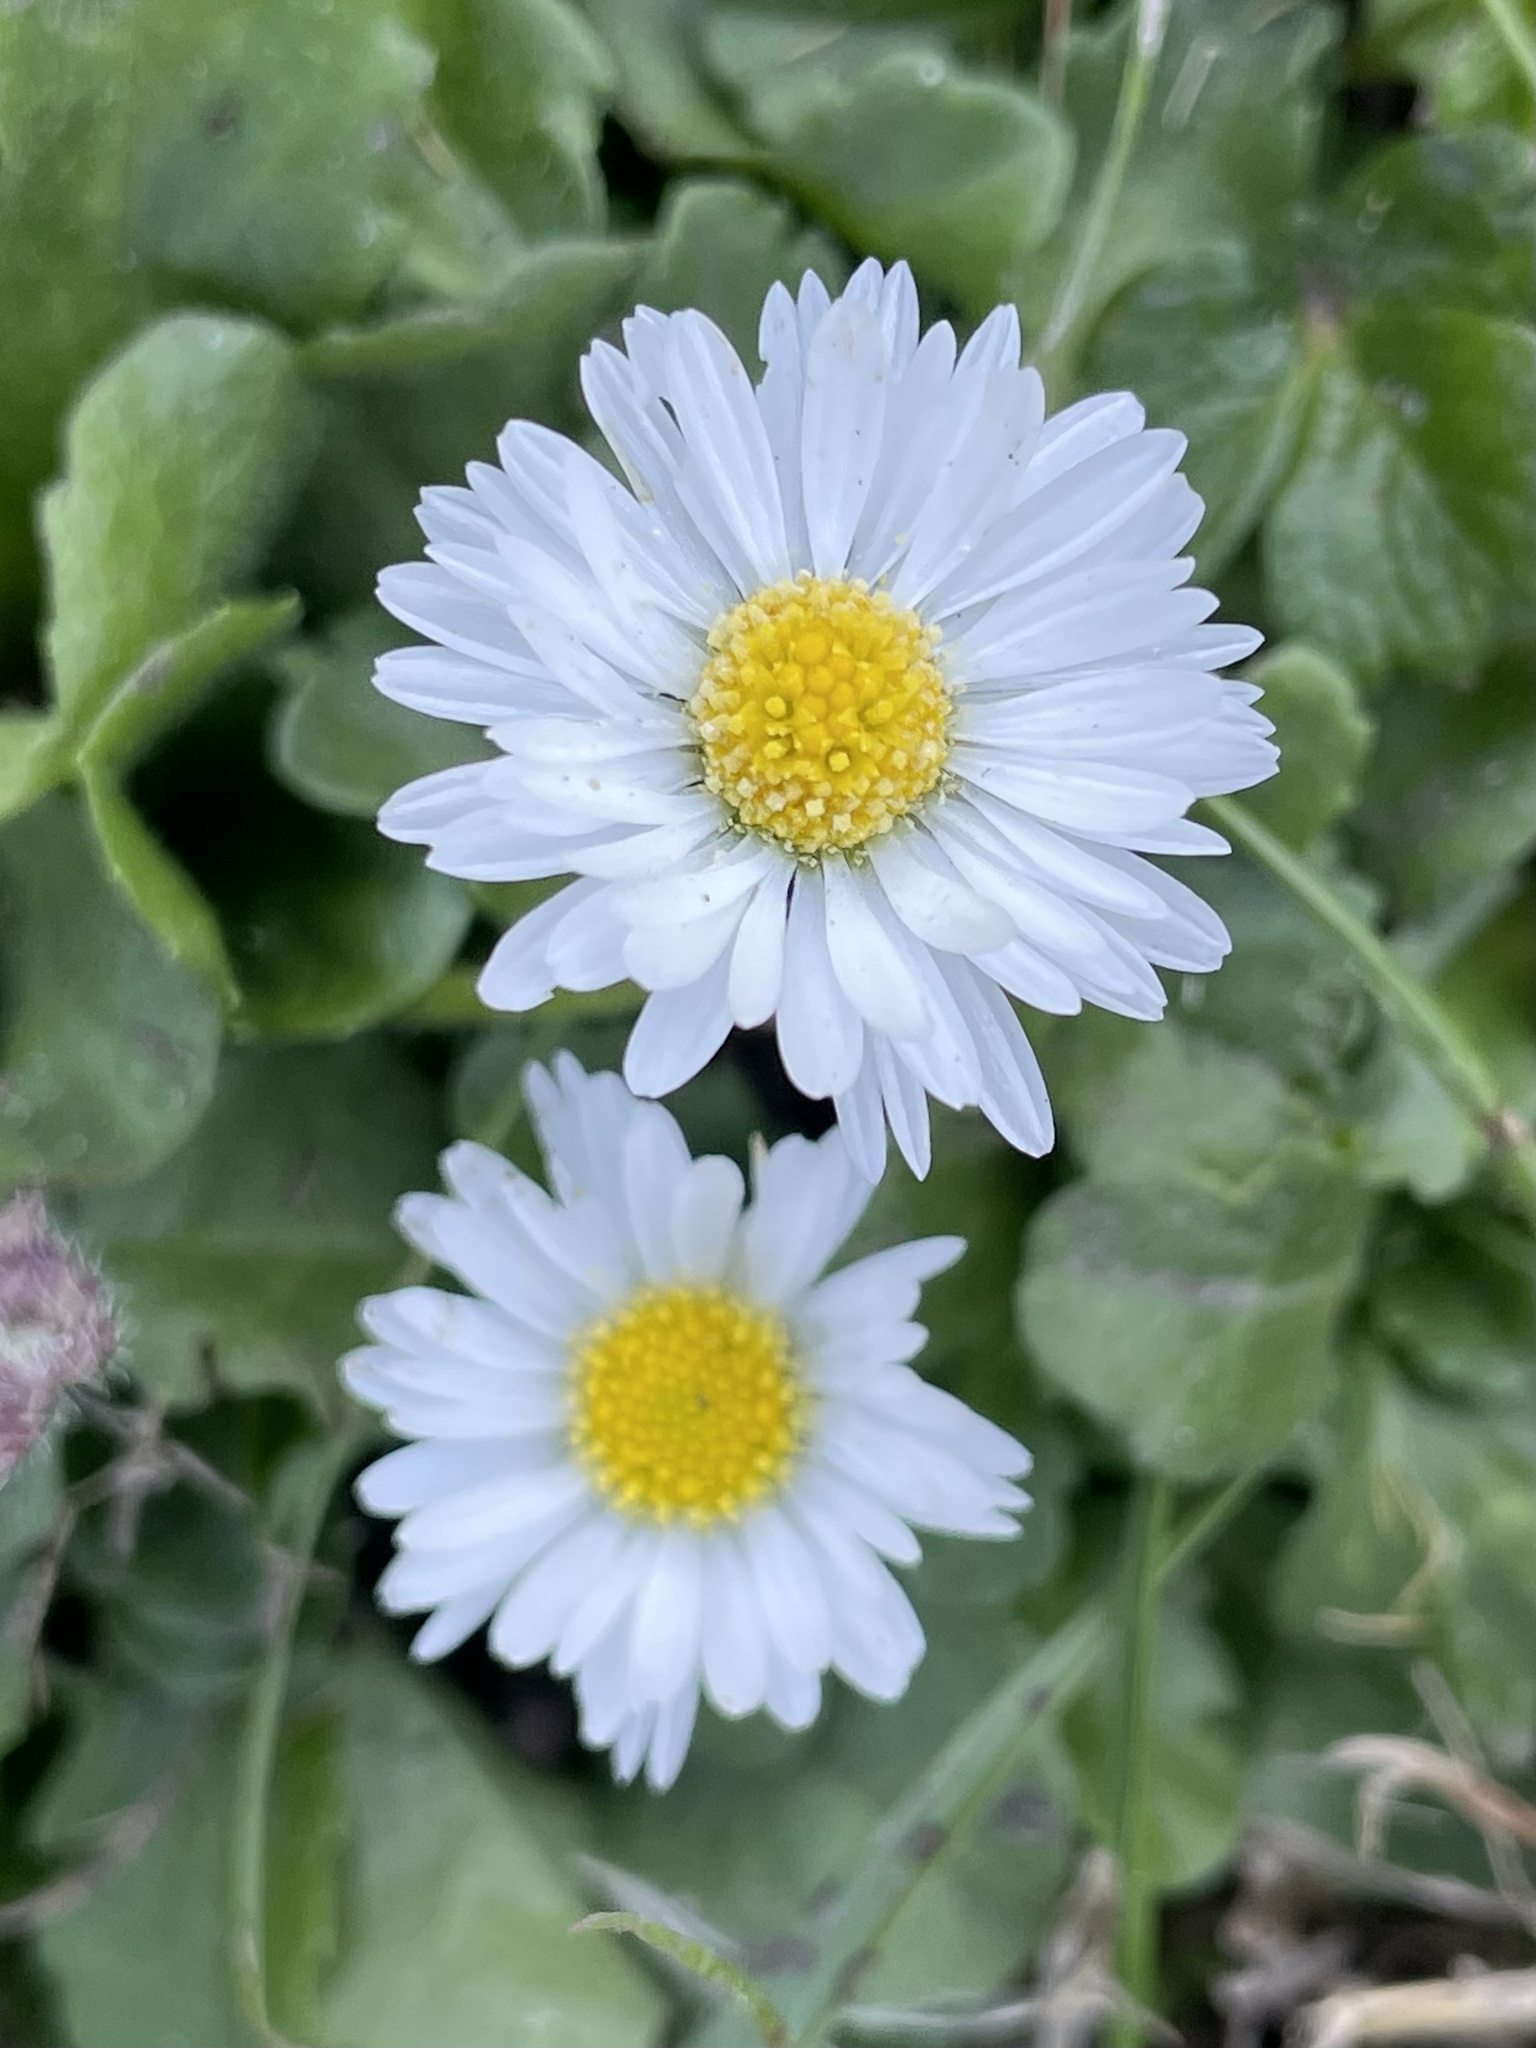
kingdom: Plantae
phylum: Tracheophyta
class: Magnoliopsida
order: Asterales
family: Asteraceae
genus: Bellis
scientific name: Bellis perennis
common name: Lawndaisy
